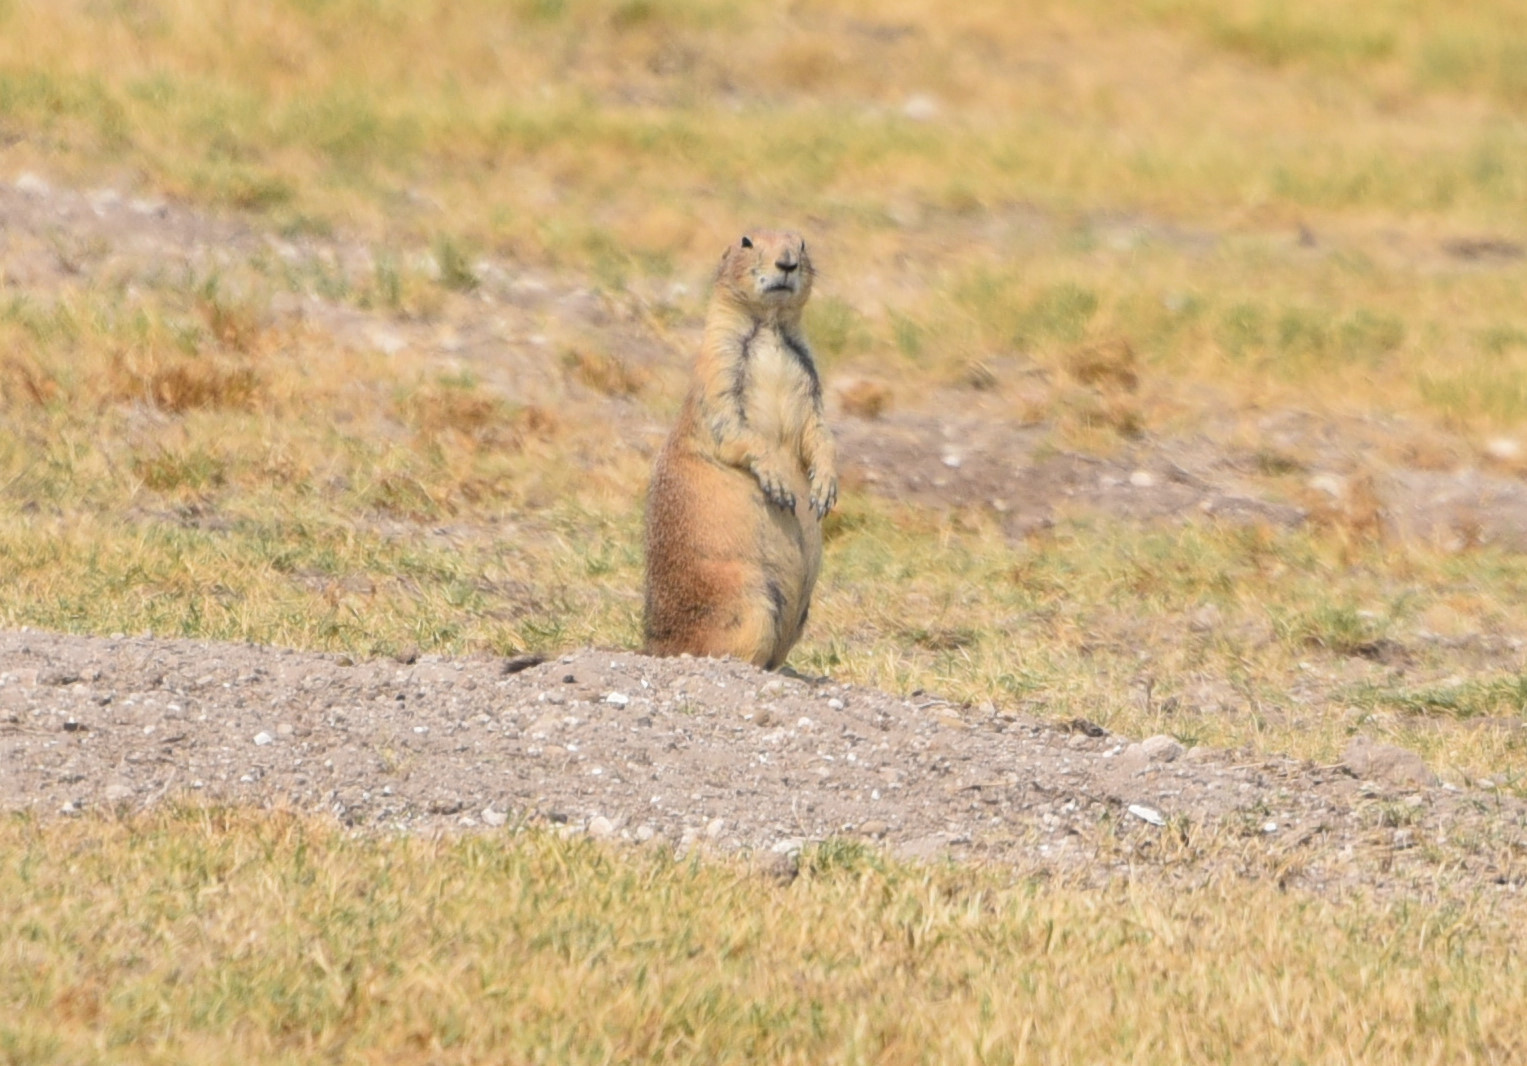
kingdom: Animalia
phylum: Chordata
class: Mammalia
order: Rodentia
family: Sciuridae
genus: Cynomys
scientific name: Cynomys ludovicianus
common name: Black-tailed prairie dog
